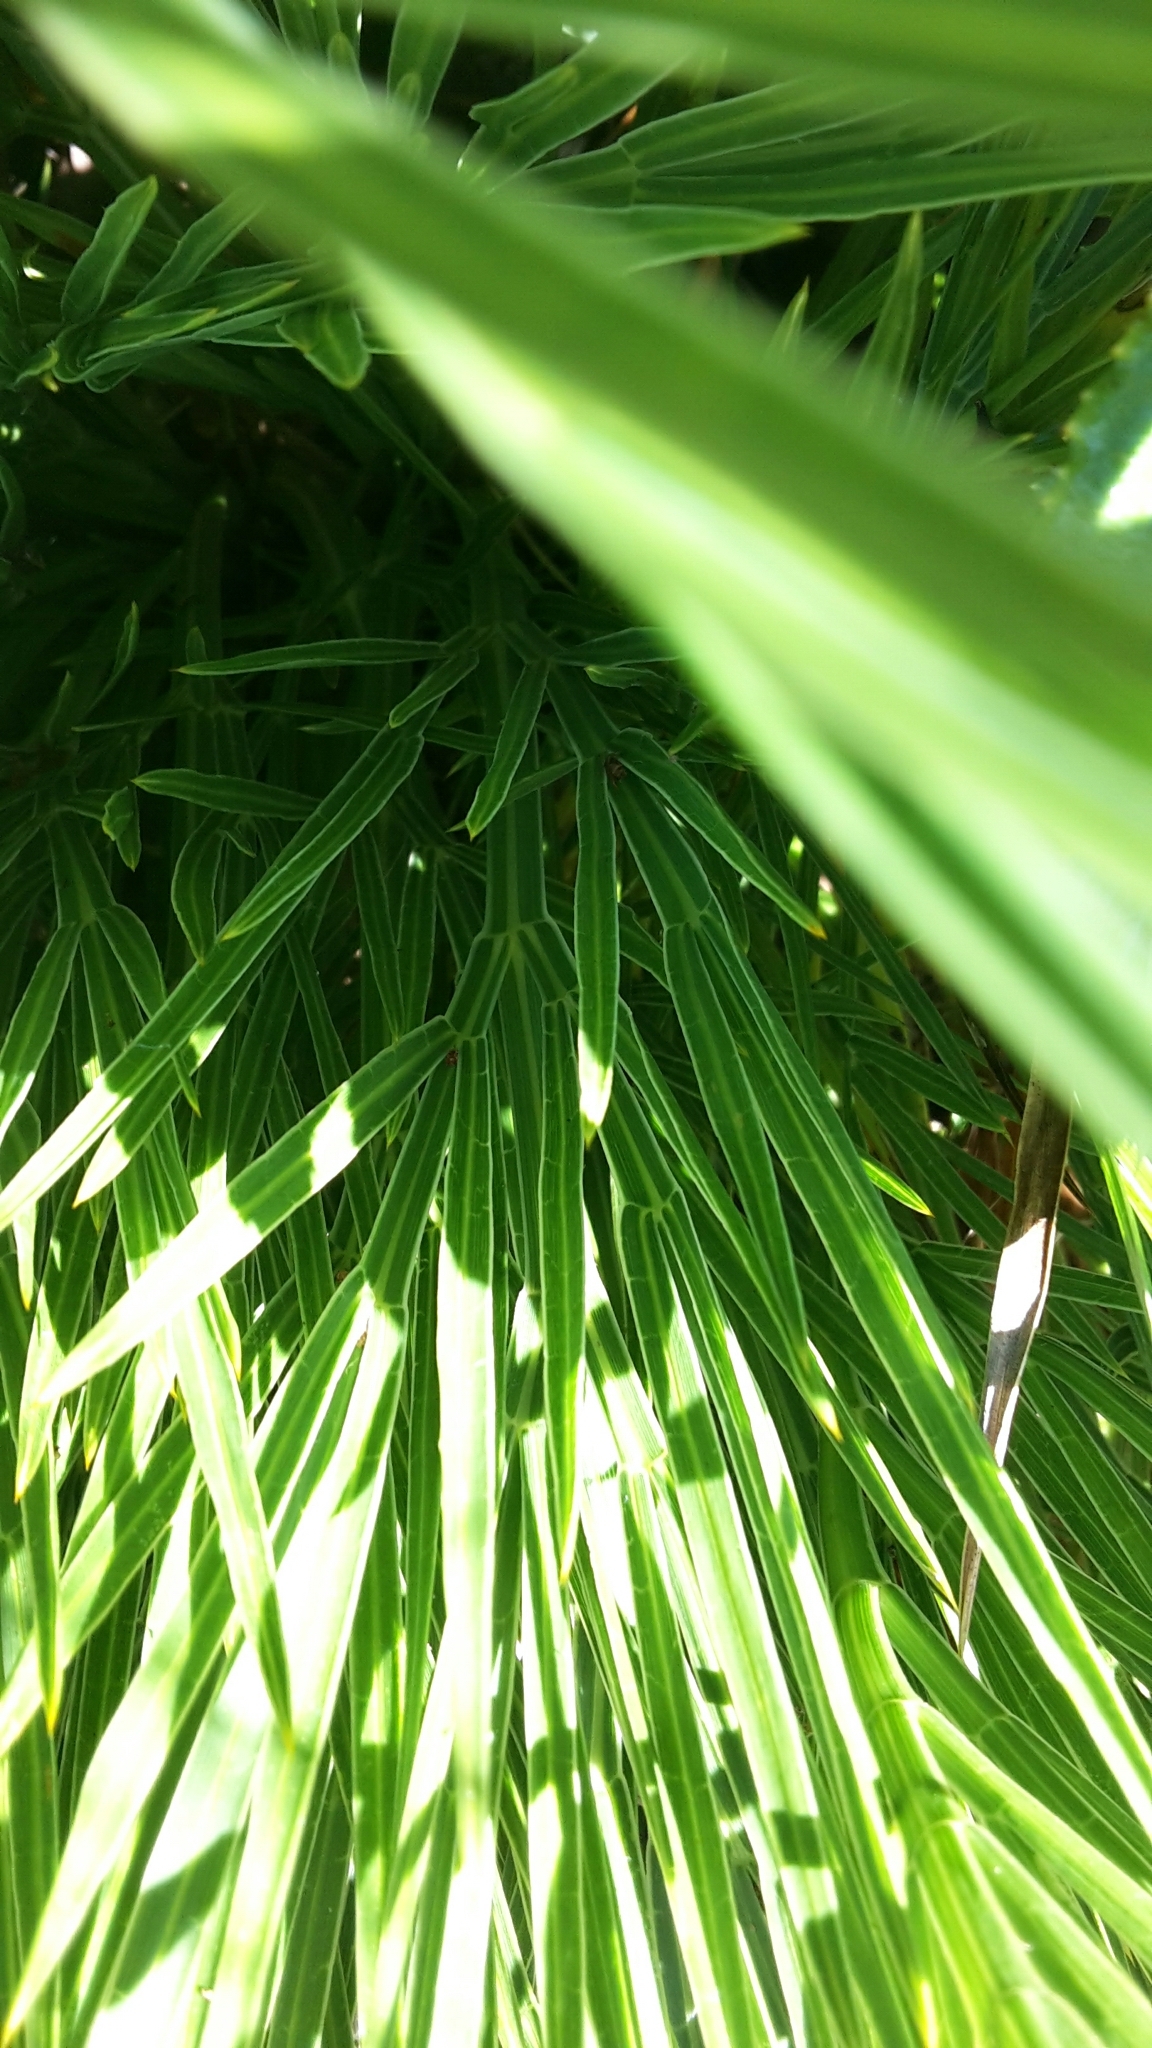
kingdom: Plantae
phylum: Tracheophyta
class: Magnoliopsida
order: Apiales
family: Apiaceae
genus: Aciphylla
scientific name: Aciphylla intermedia
